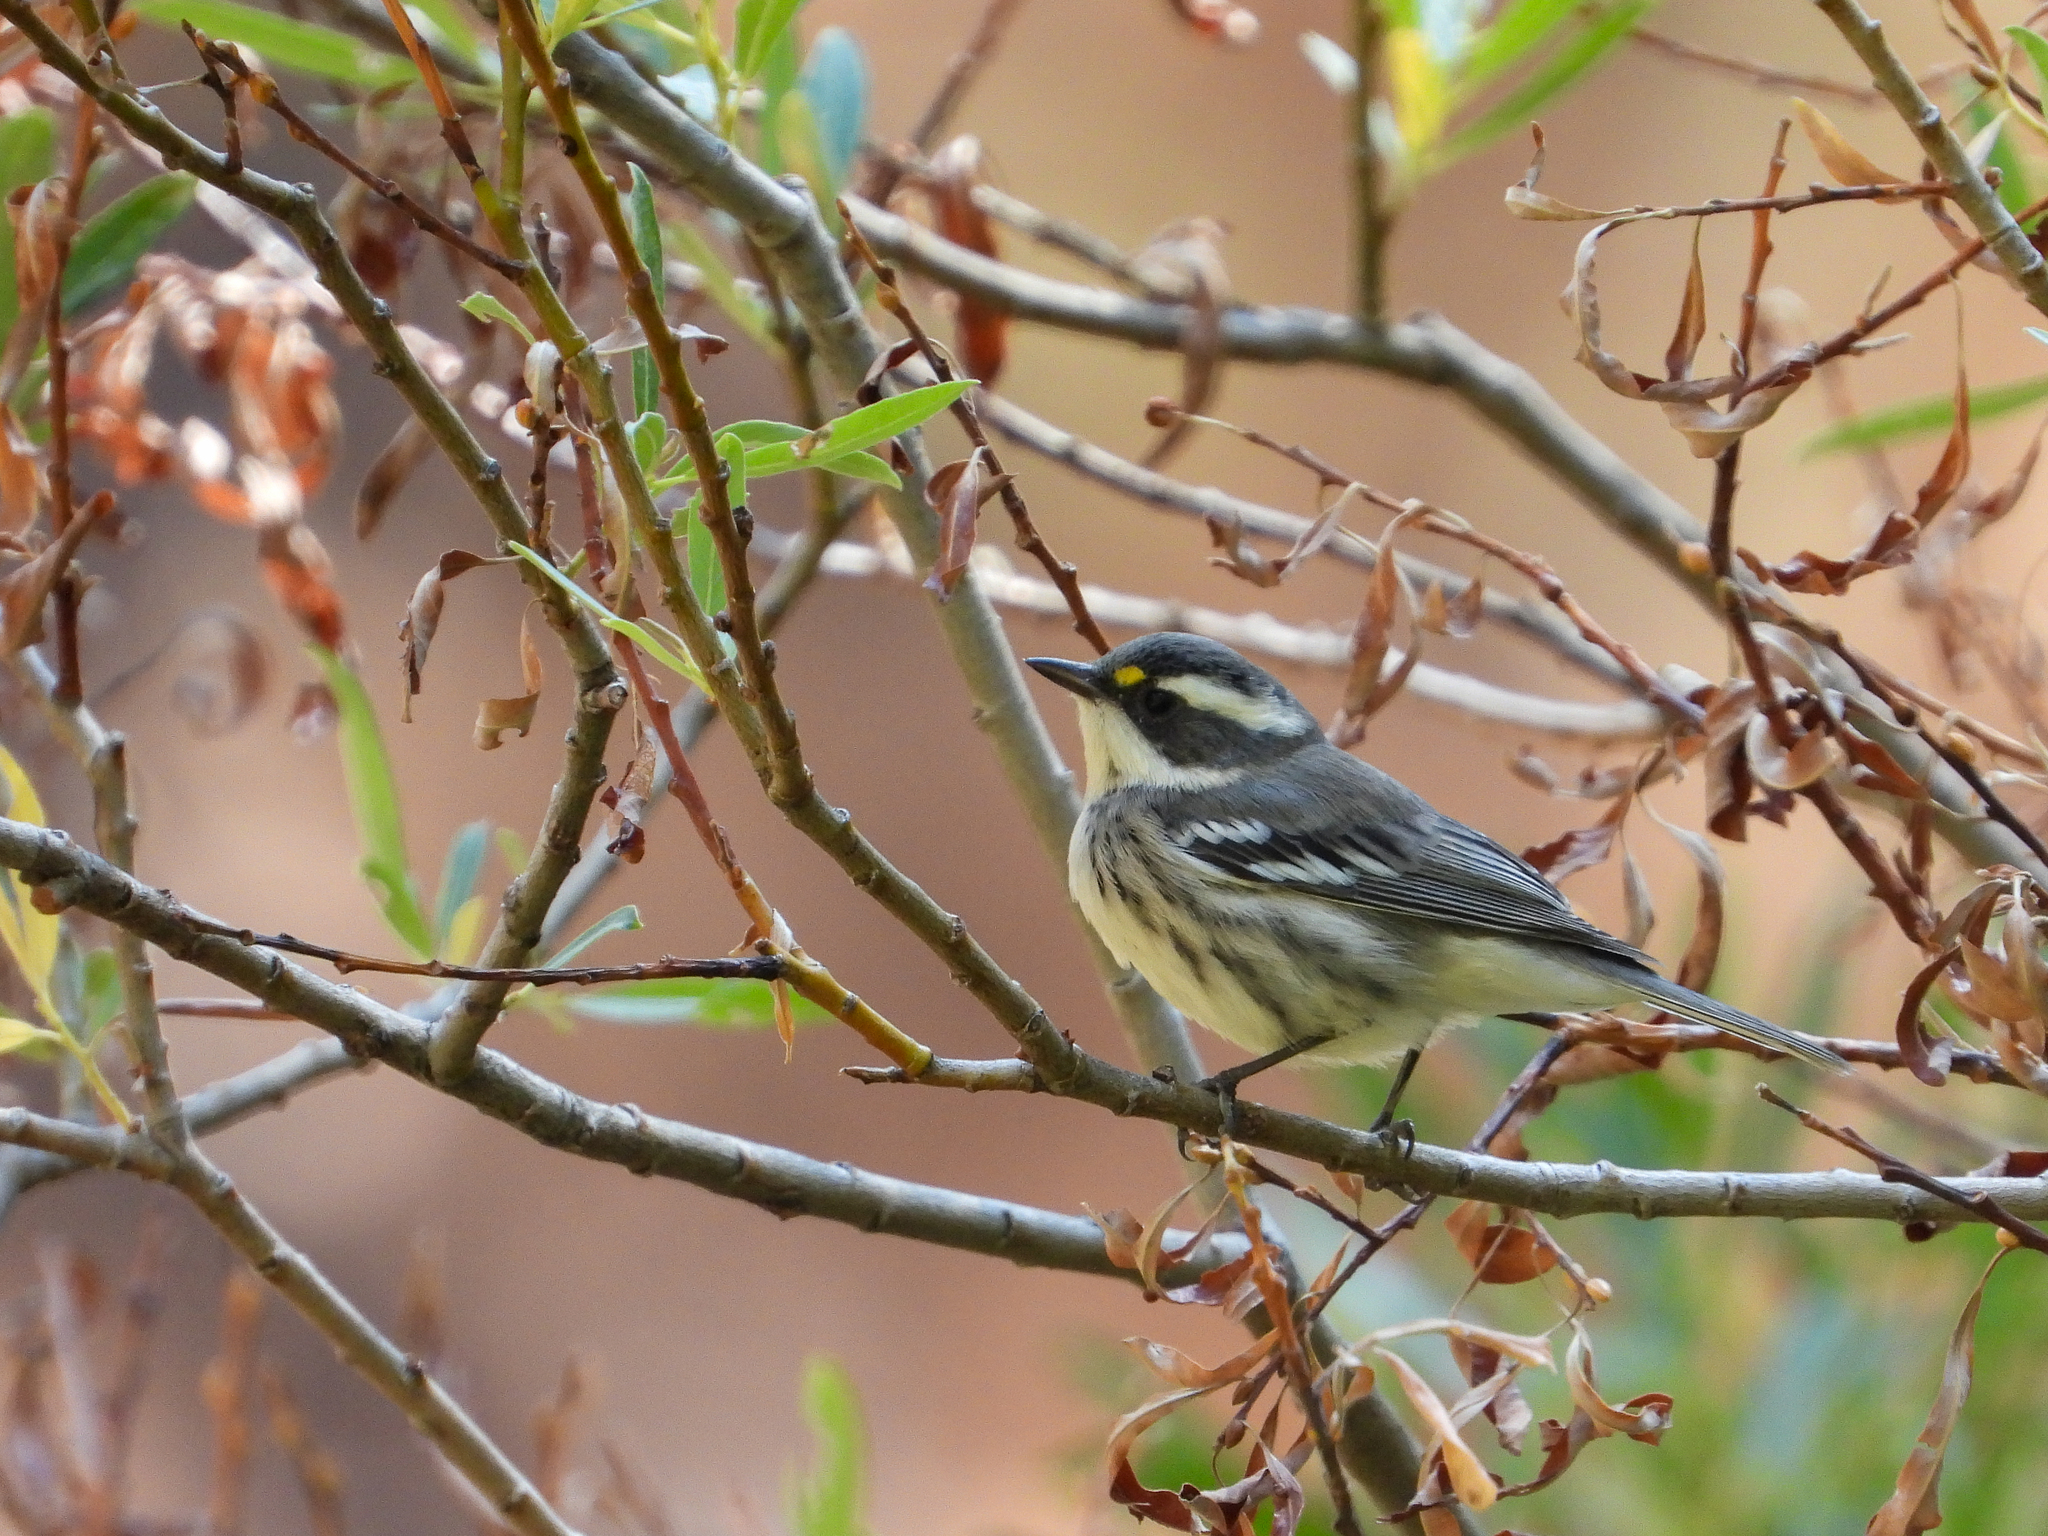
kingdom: Animalia
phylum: Chordata
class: Aves
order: Passeriformes
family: Parulidae
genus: Setophaga
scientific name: Setophaga nigrescens
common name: Black-throated gray warbler
